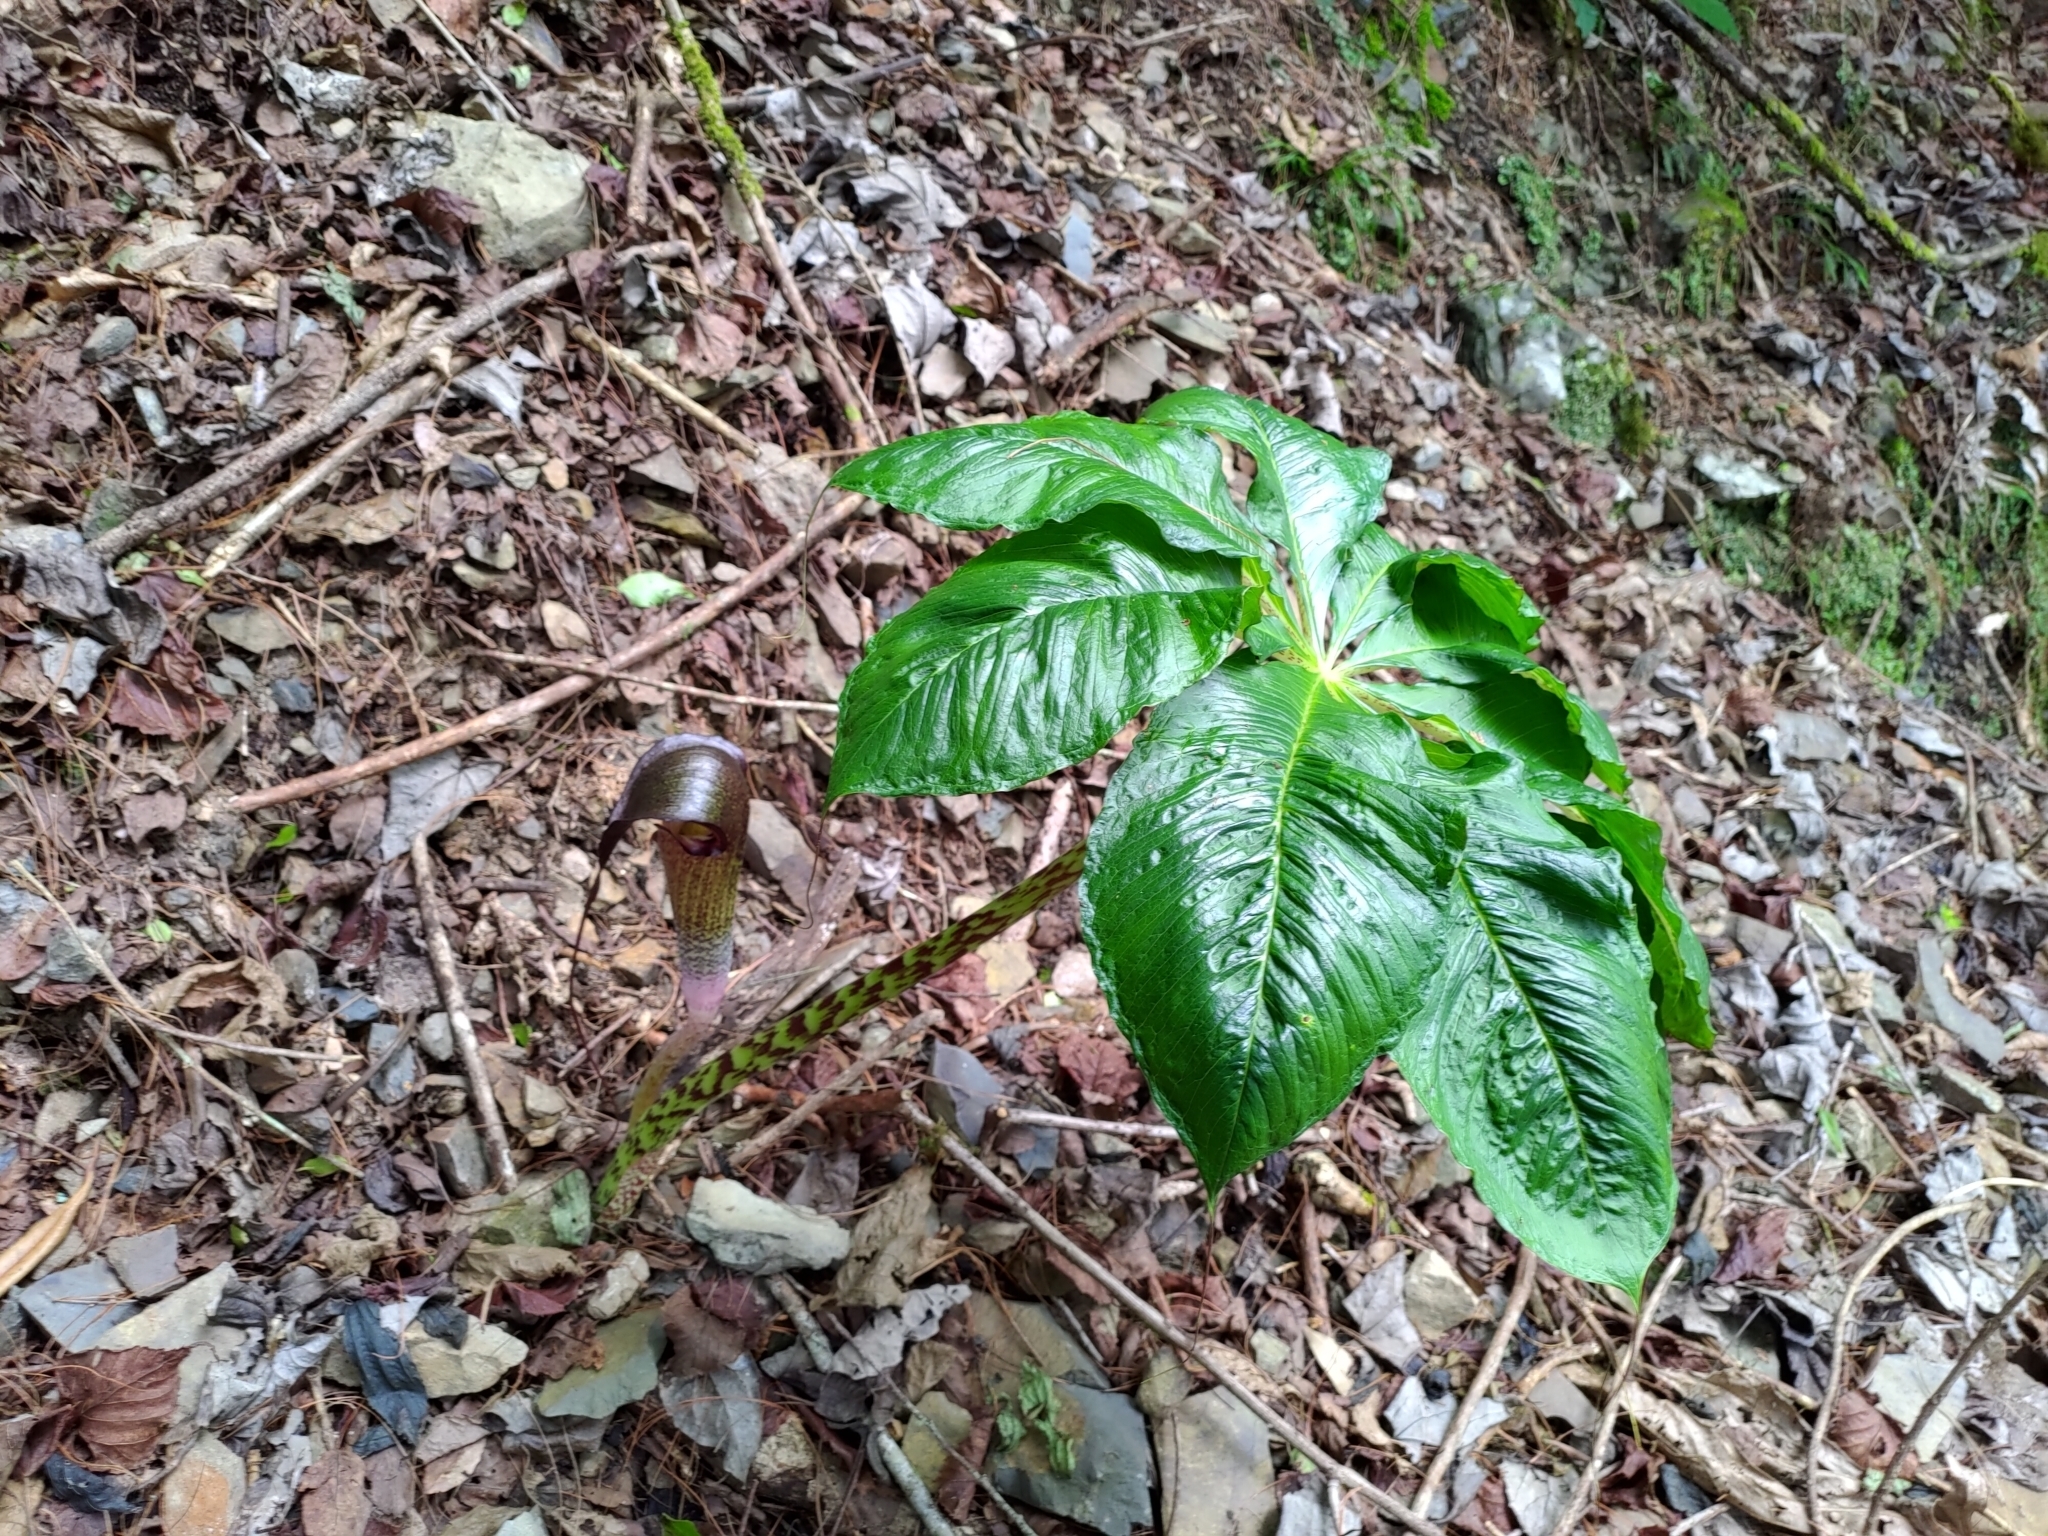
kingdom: Plantae
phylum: Tracheophyta
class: Liliopsida
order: Alismatales
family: Araceae
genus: Arisaema
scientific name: Arisaema taiwanense
